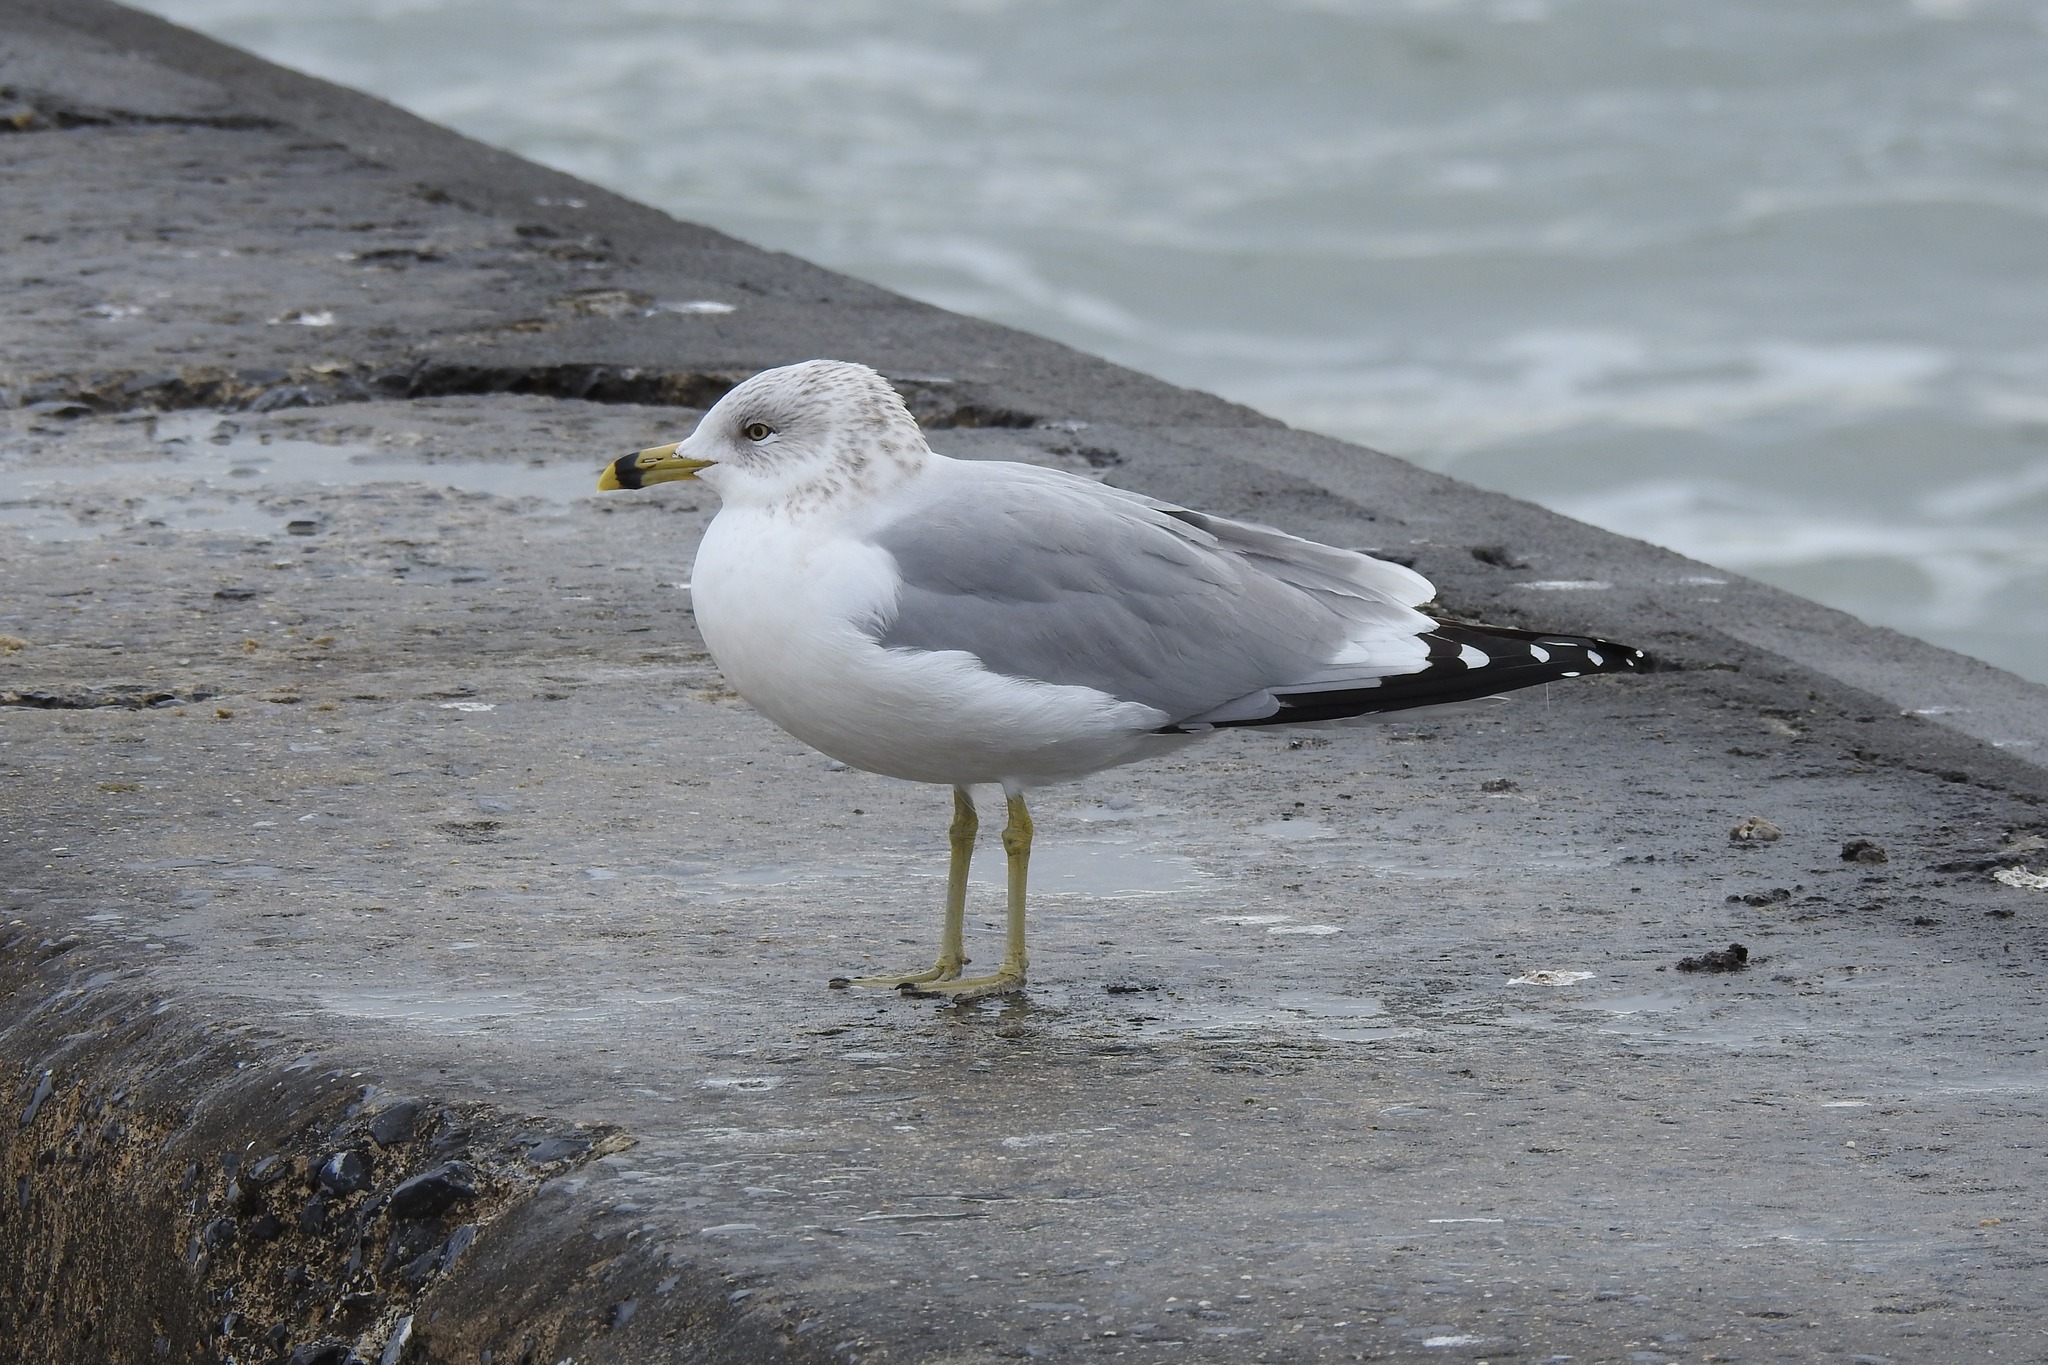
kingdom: Animalia
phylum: Chordata
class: Aves
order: Charadriiformes
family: Laridae
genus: Larus
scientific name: Larus delawarensis
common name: Ring-billed gull
